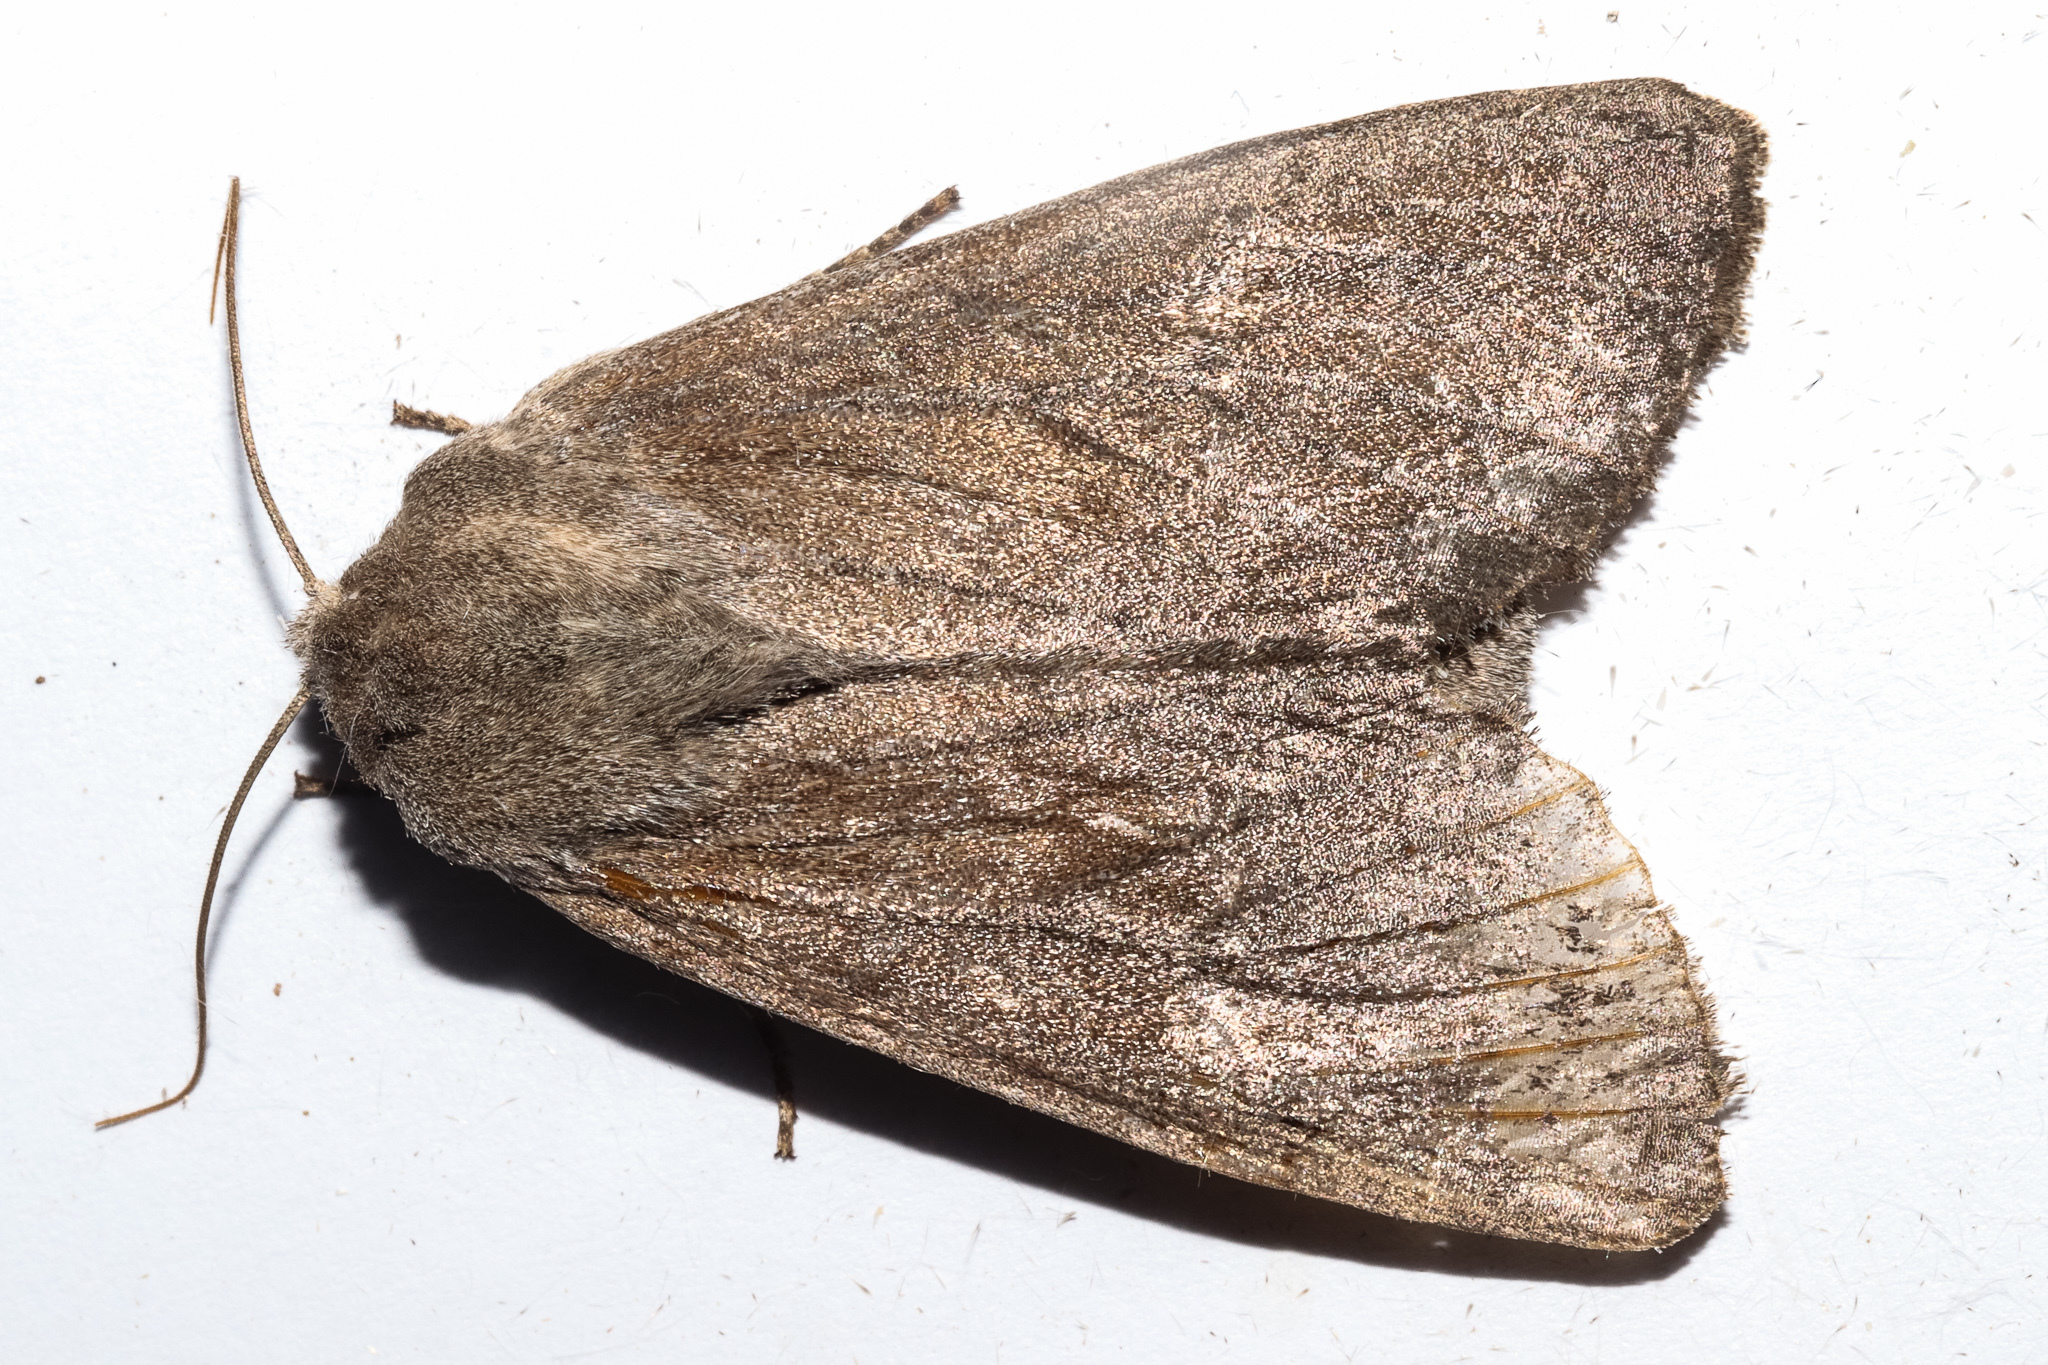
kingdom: Animalia
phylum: Arthropoda
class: Insecta
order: Lepidoptera
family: Noctuidae
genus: Ichneutica
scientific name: Ichneutica nullifera
